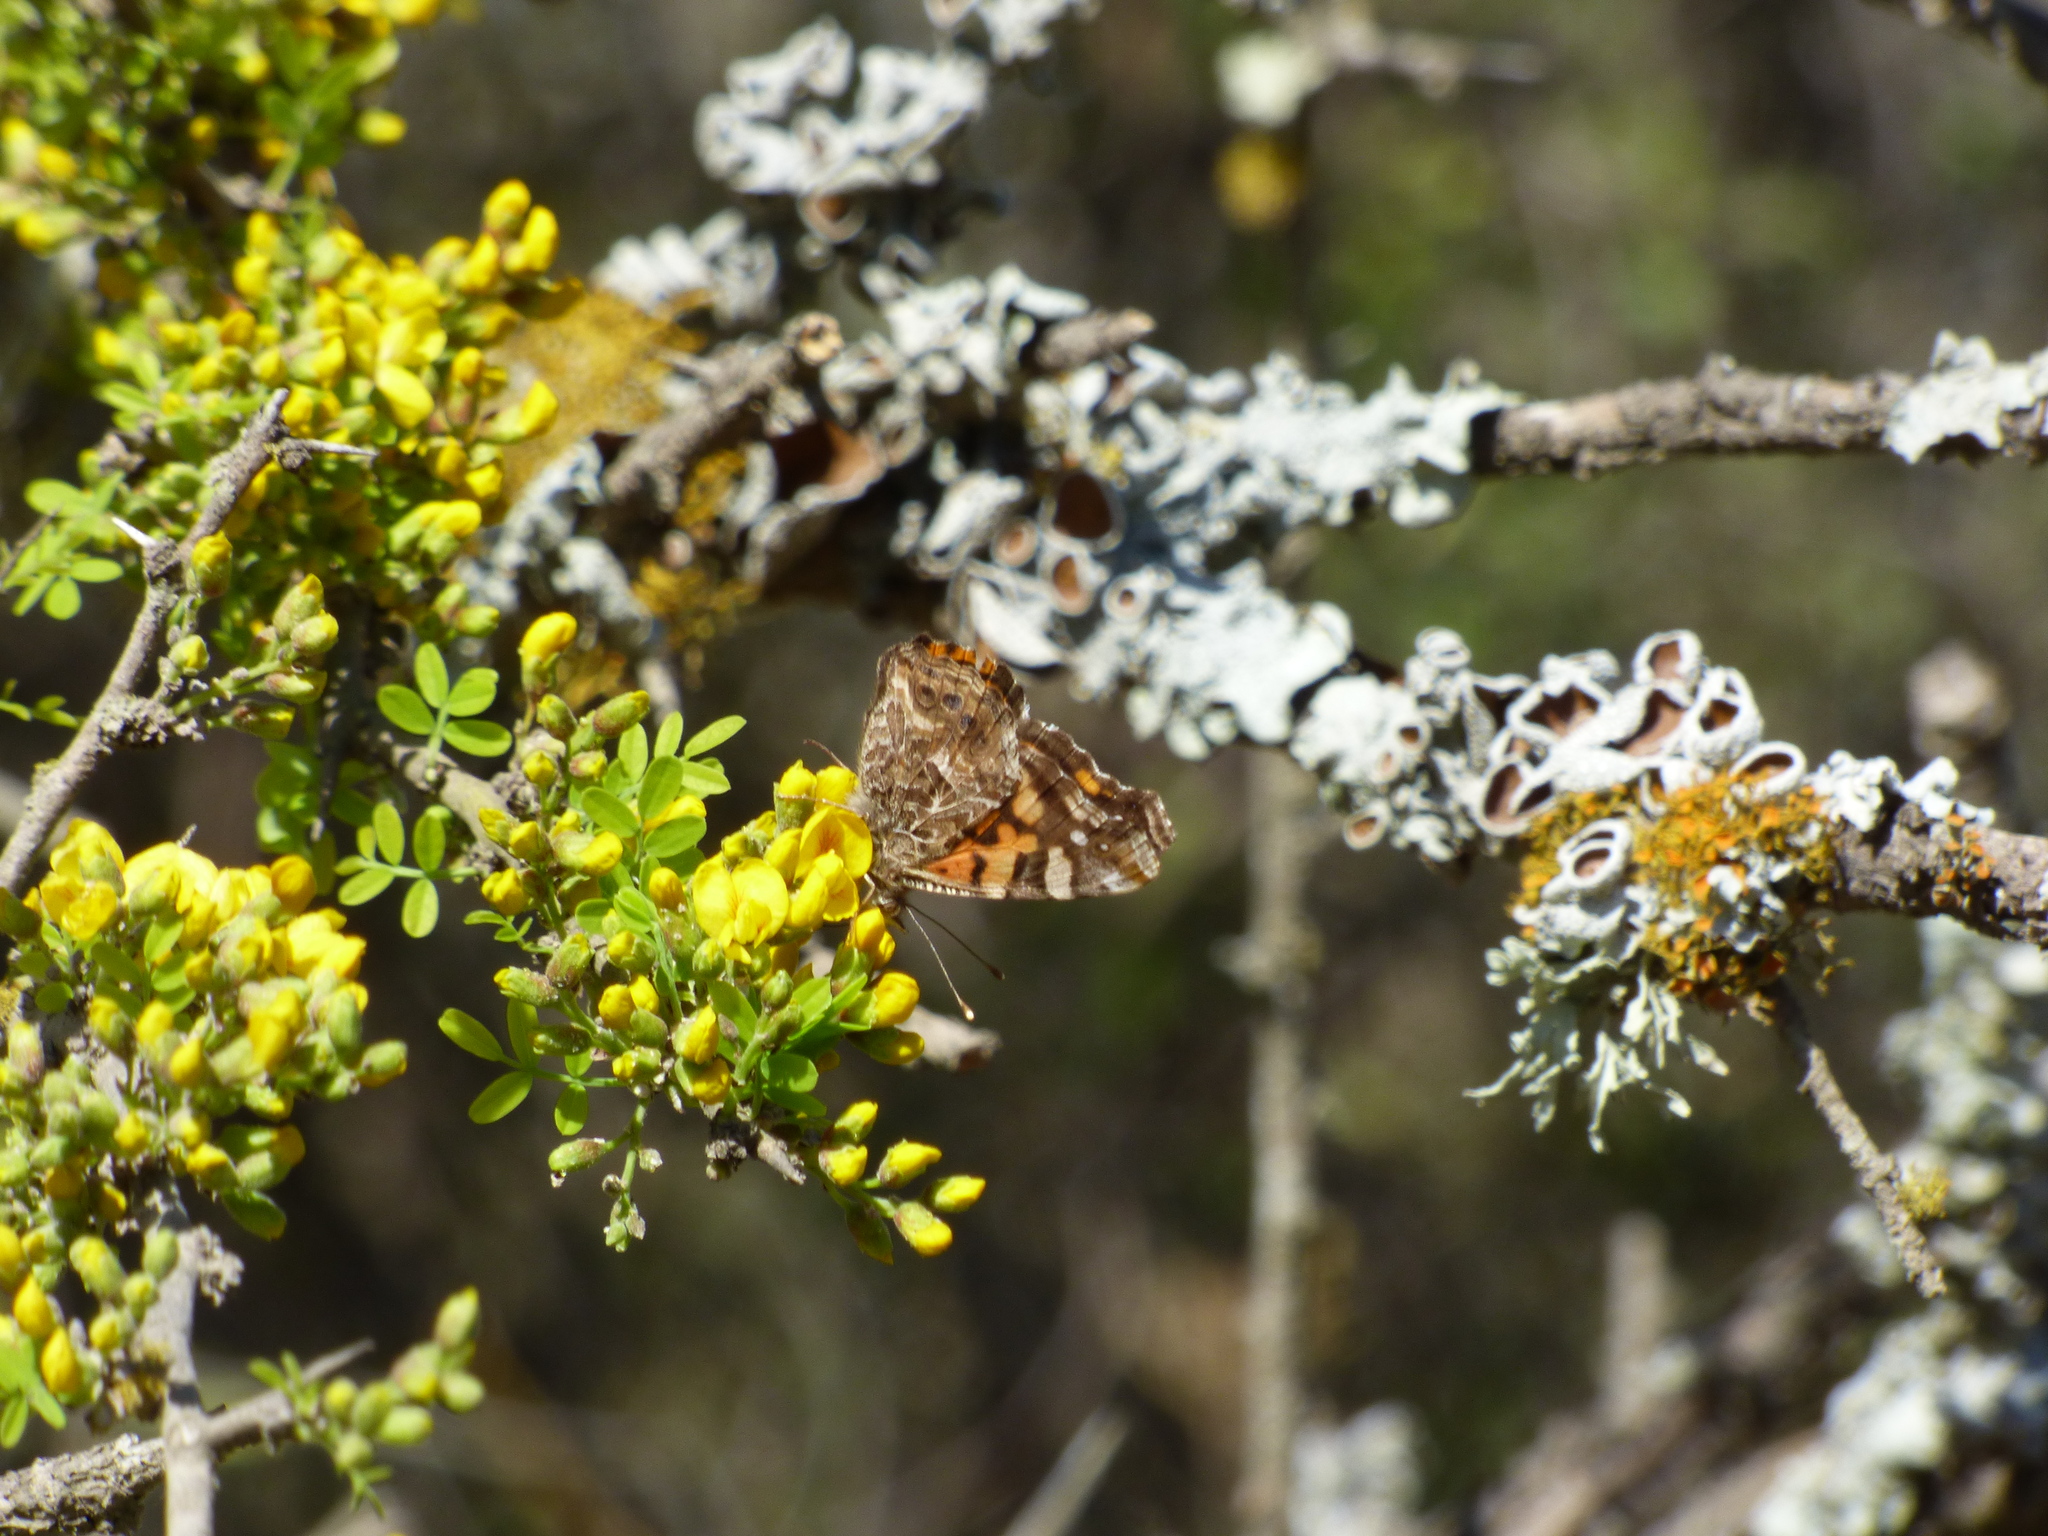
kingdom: Animalia
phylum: Arthropoda
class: Insecta
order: Lepidoptera
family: Nymphalidae
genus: Vanessa
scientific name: Vanessa carye
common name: Subtropical lady
